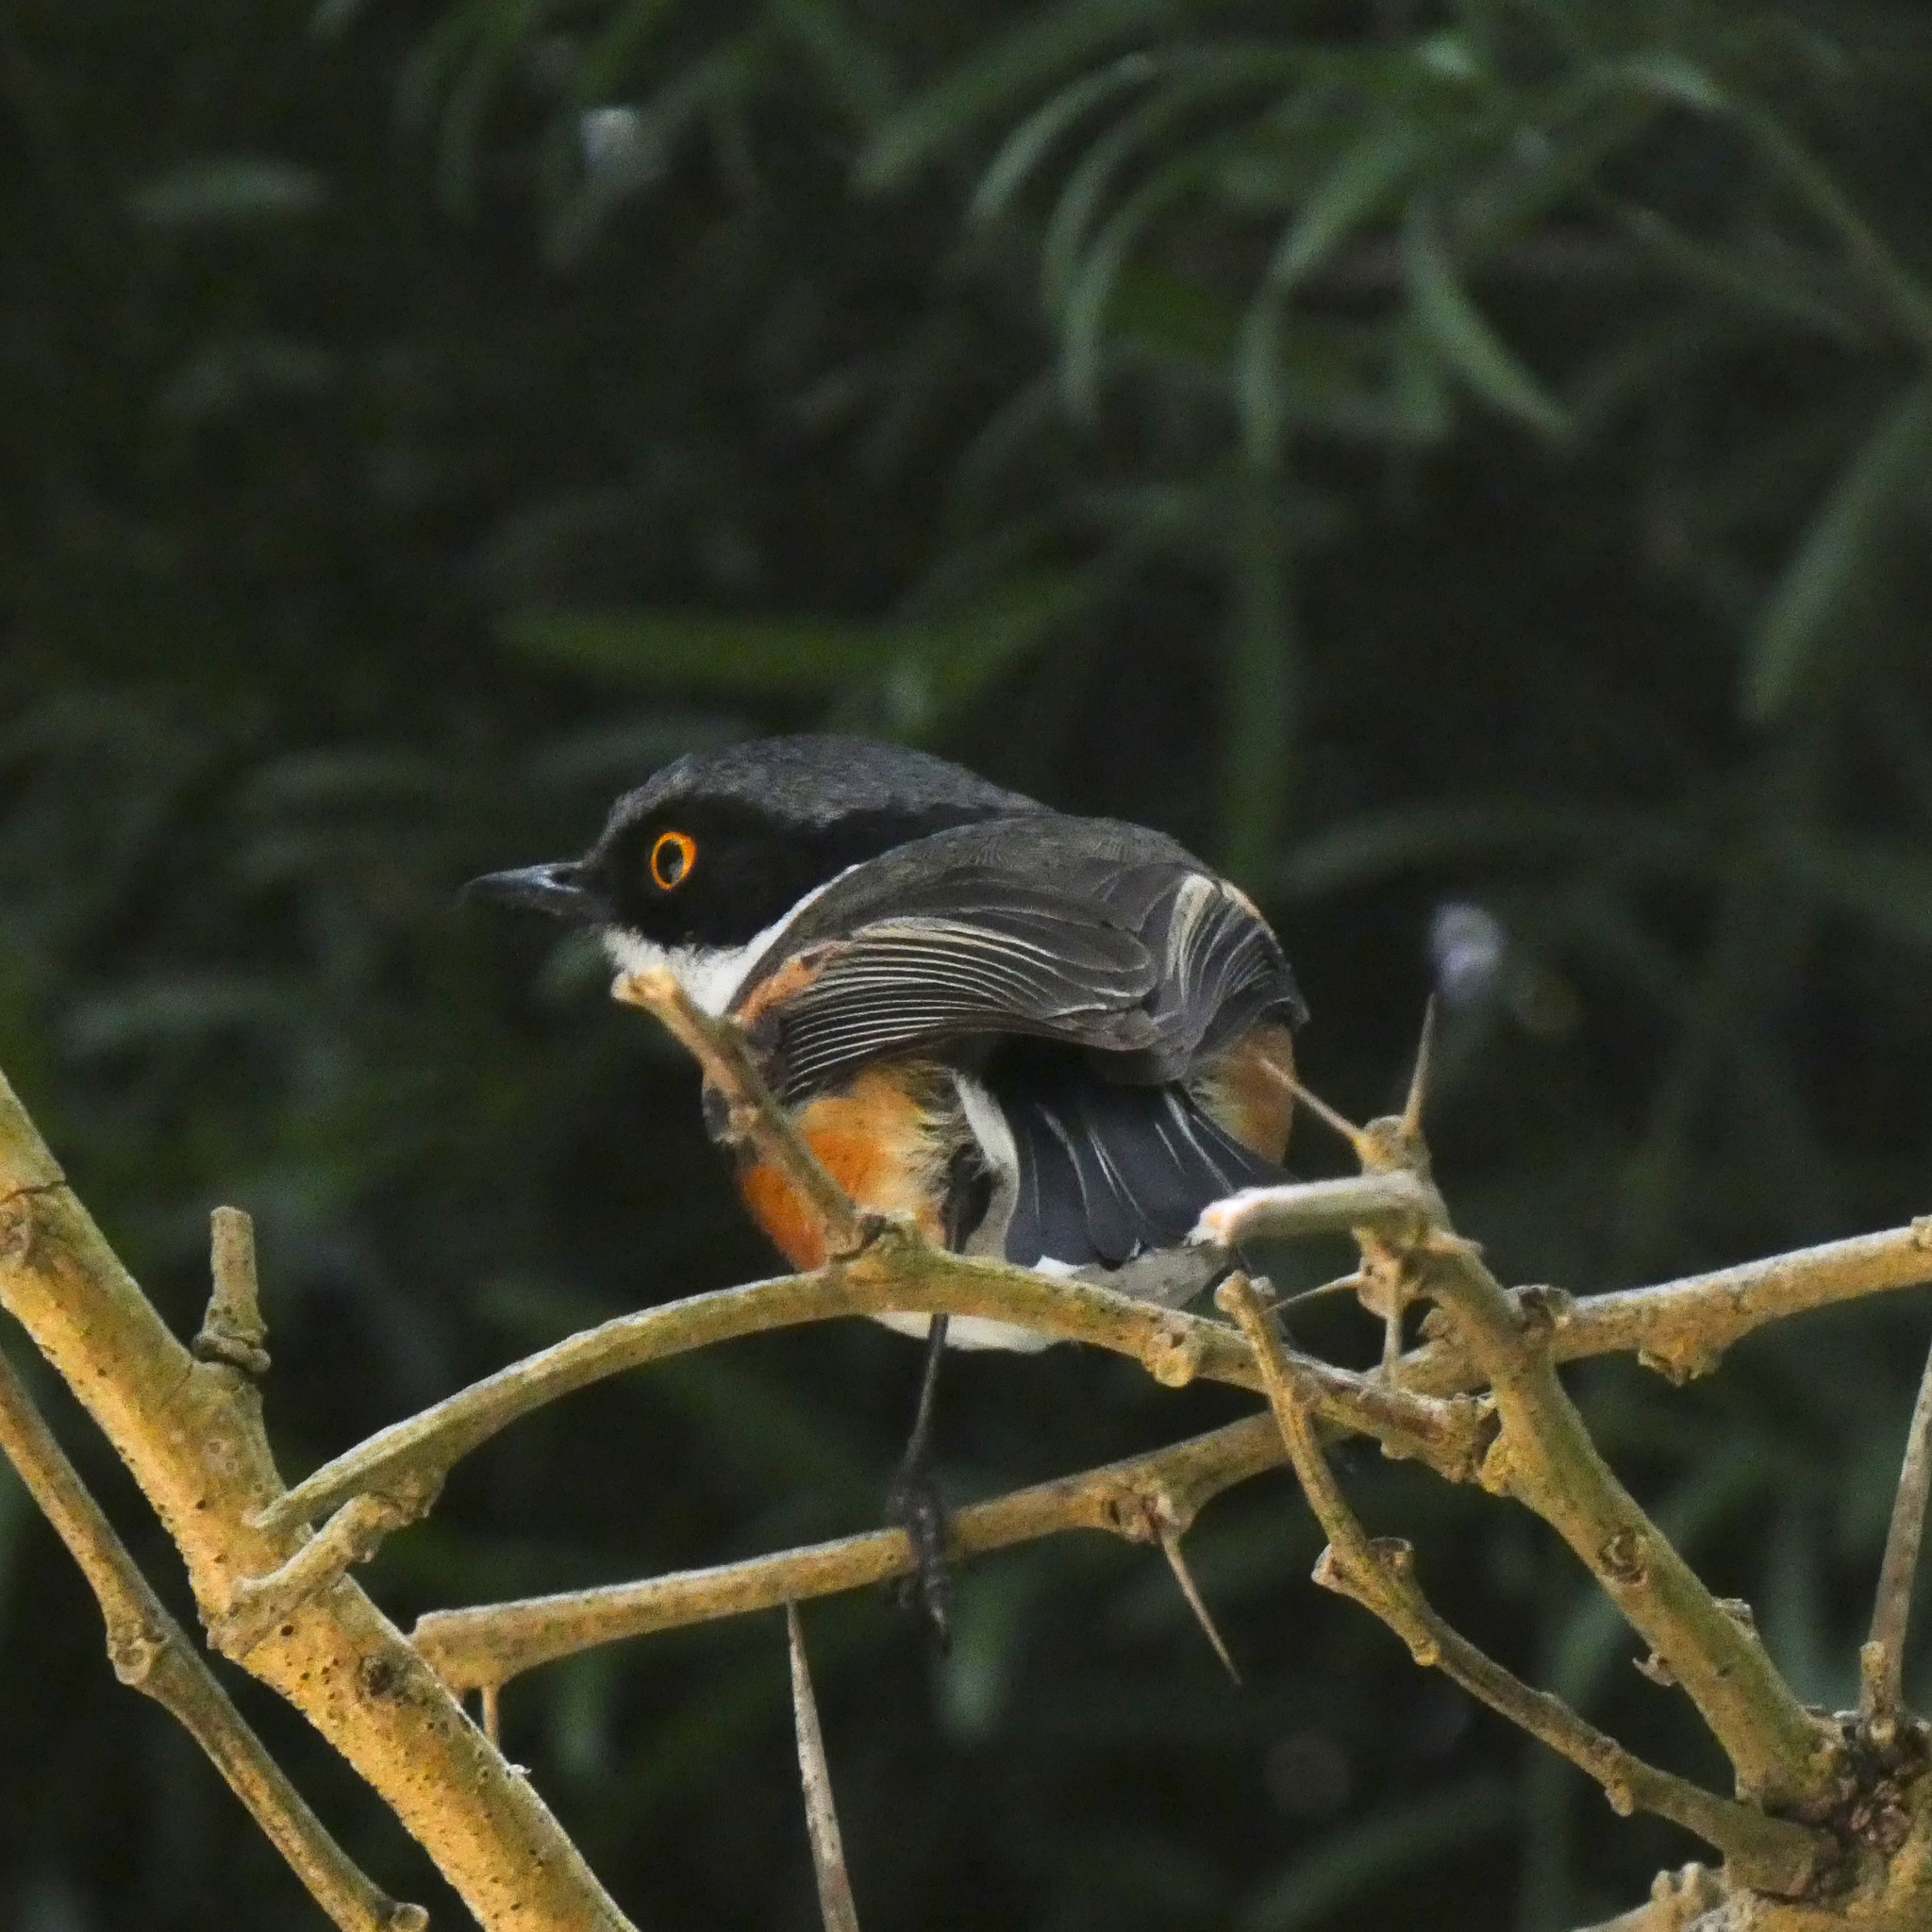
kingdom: Animalia
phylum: Chordata
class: Aves
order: Passeriformes
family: Platysteiridae
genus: Batis
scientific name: Batis capensis
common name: Cape batis
